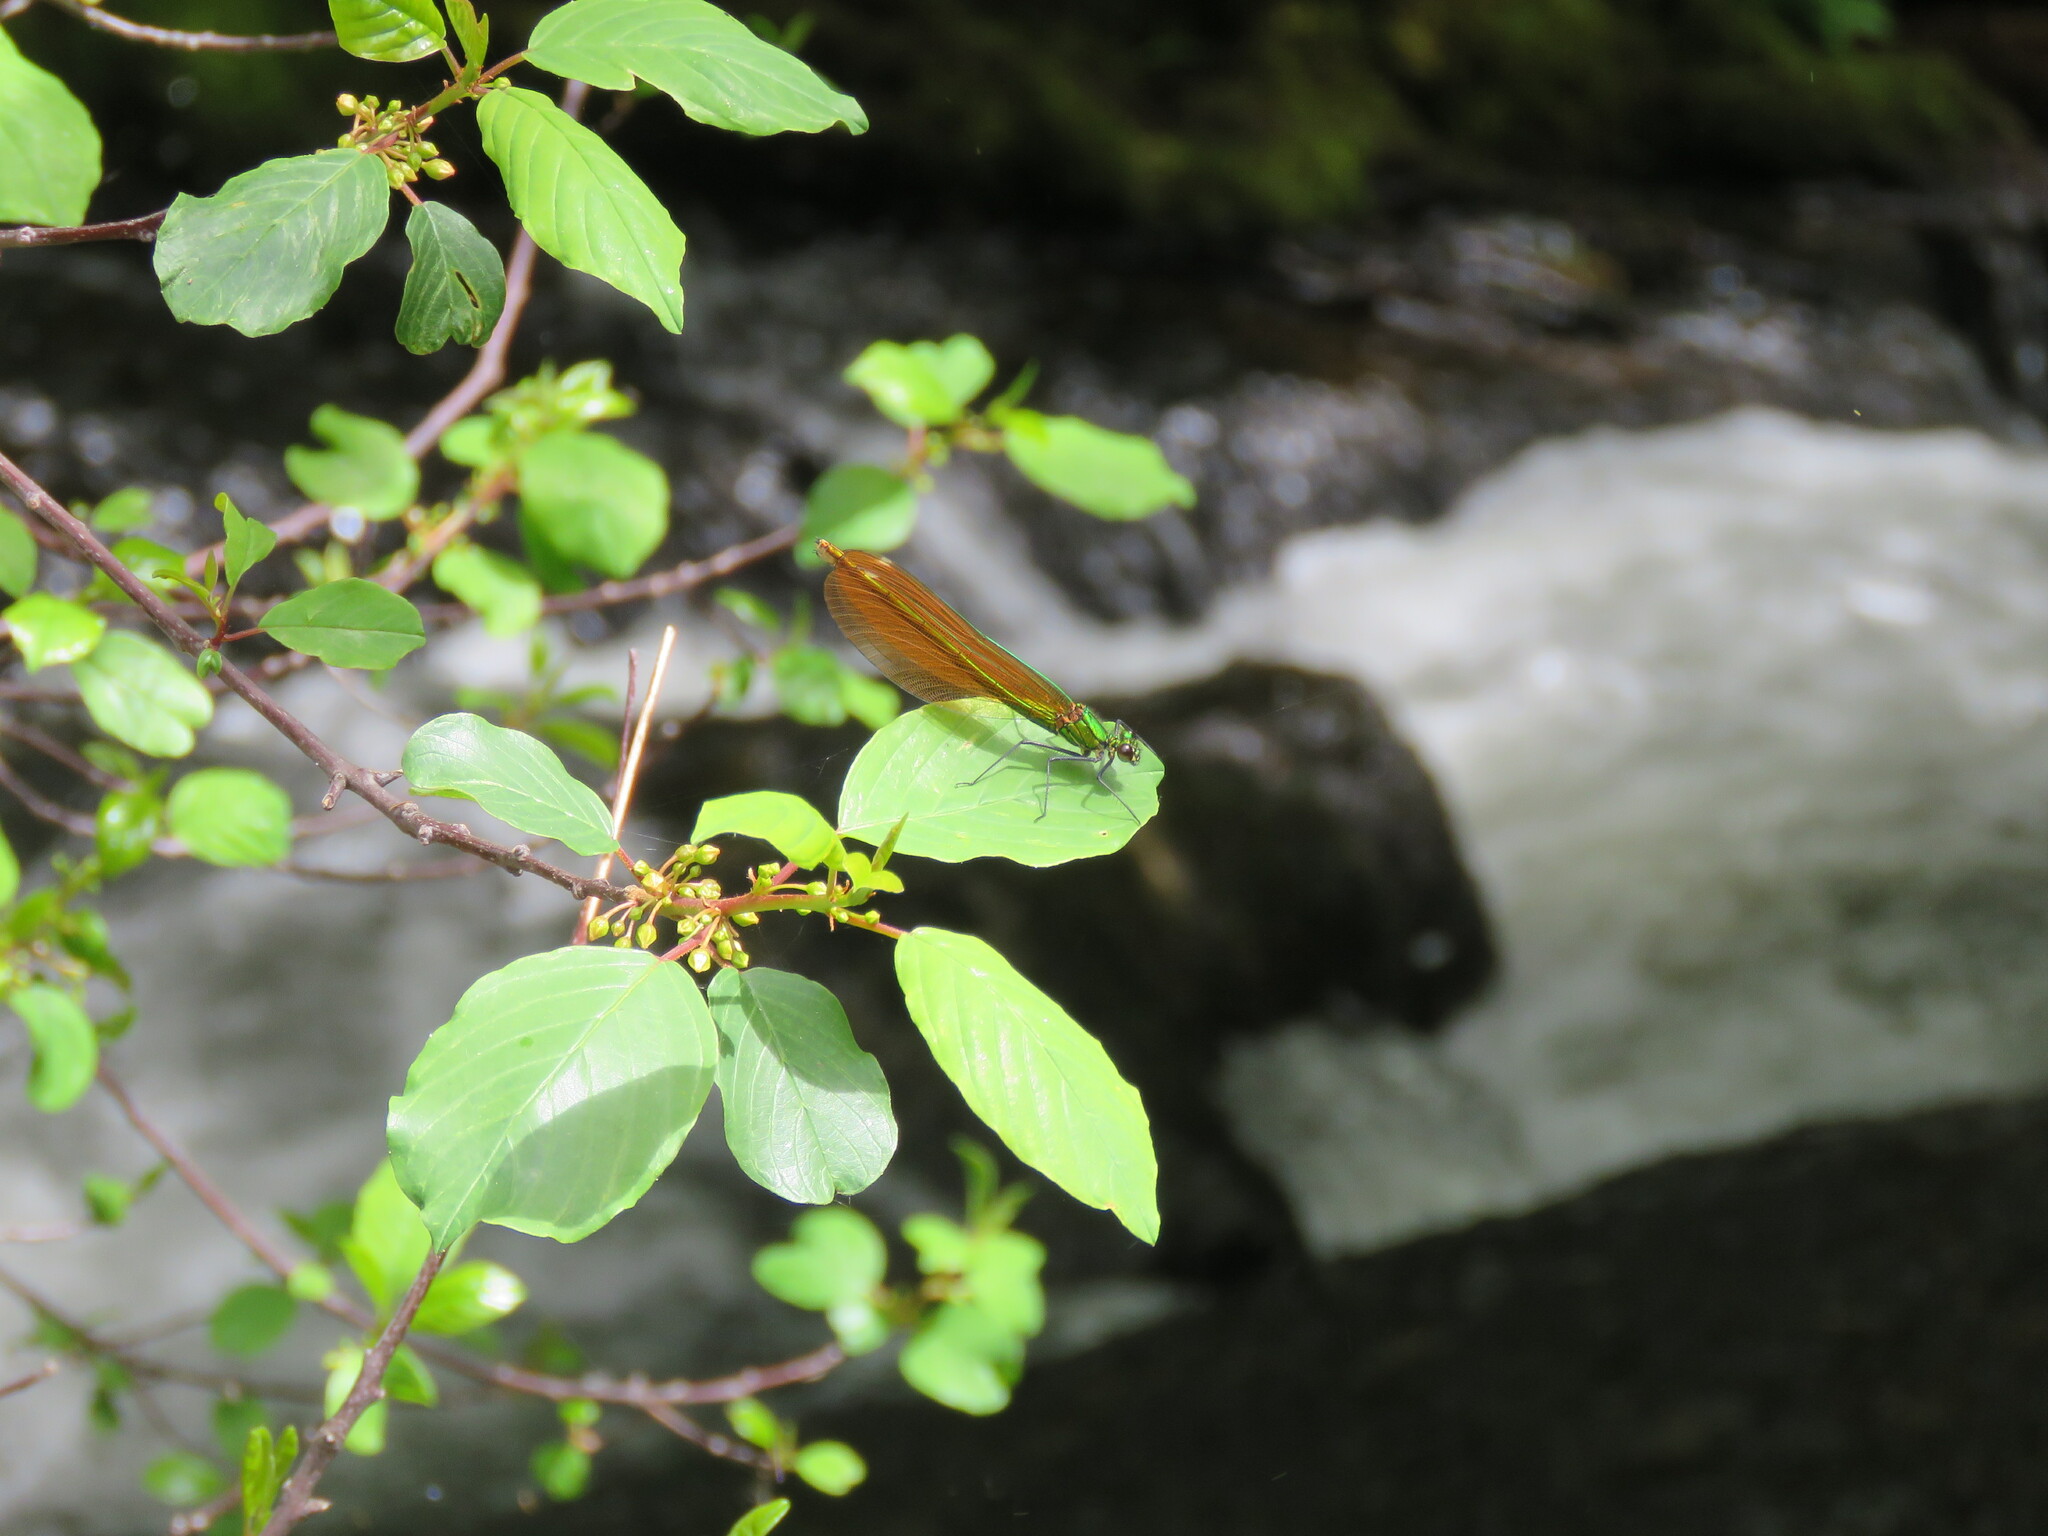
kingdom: Animalia
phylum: Arthropoda
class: Insecta
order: Odonata
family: Calopterygidae
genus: Calopteryx
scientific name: Calopteryx virgo
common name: Beautiful demoiselle
